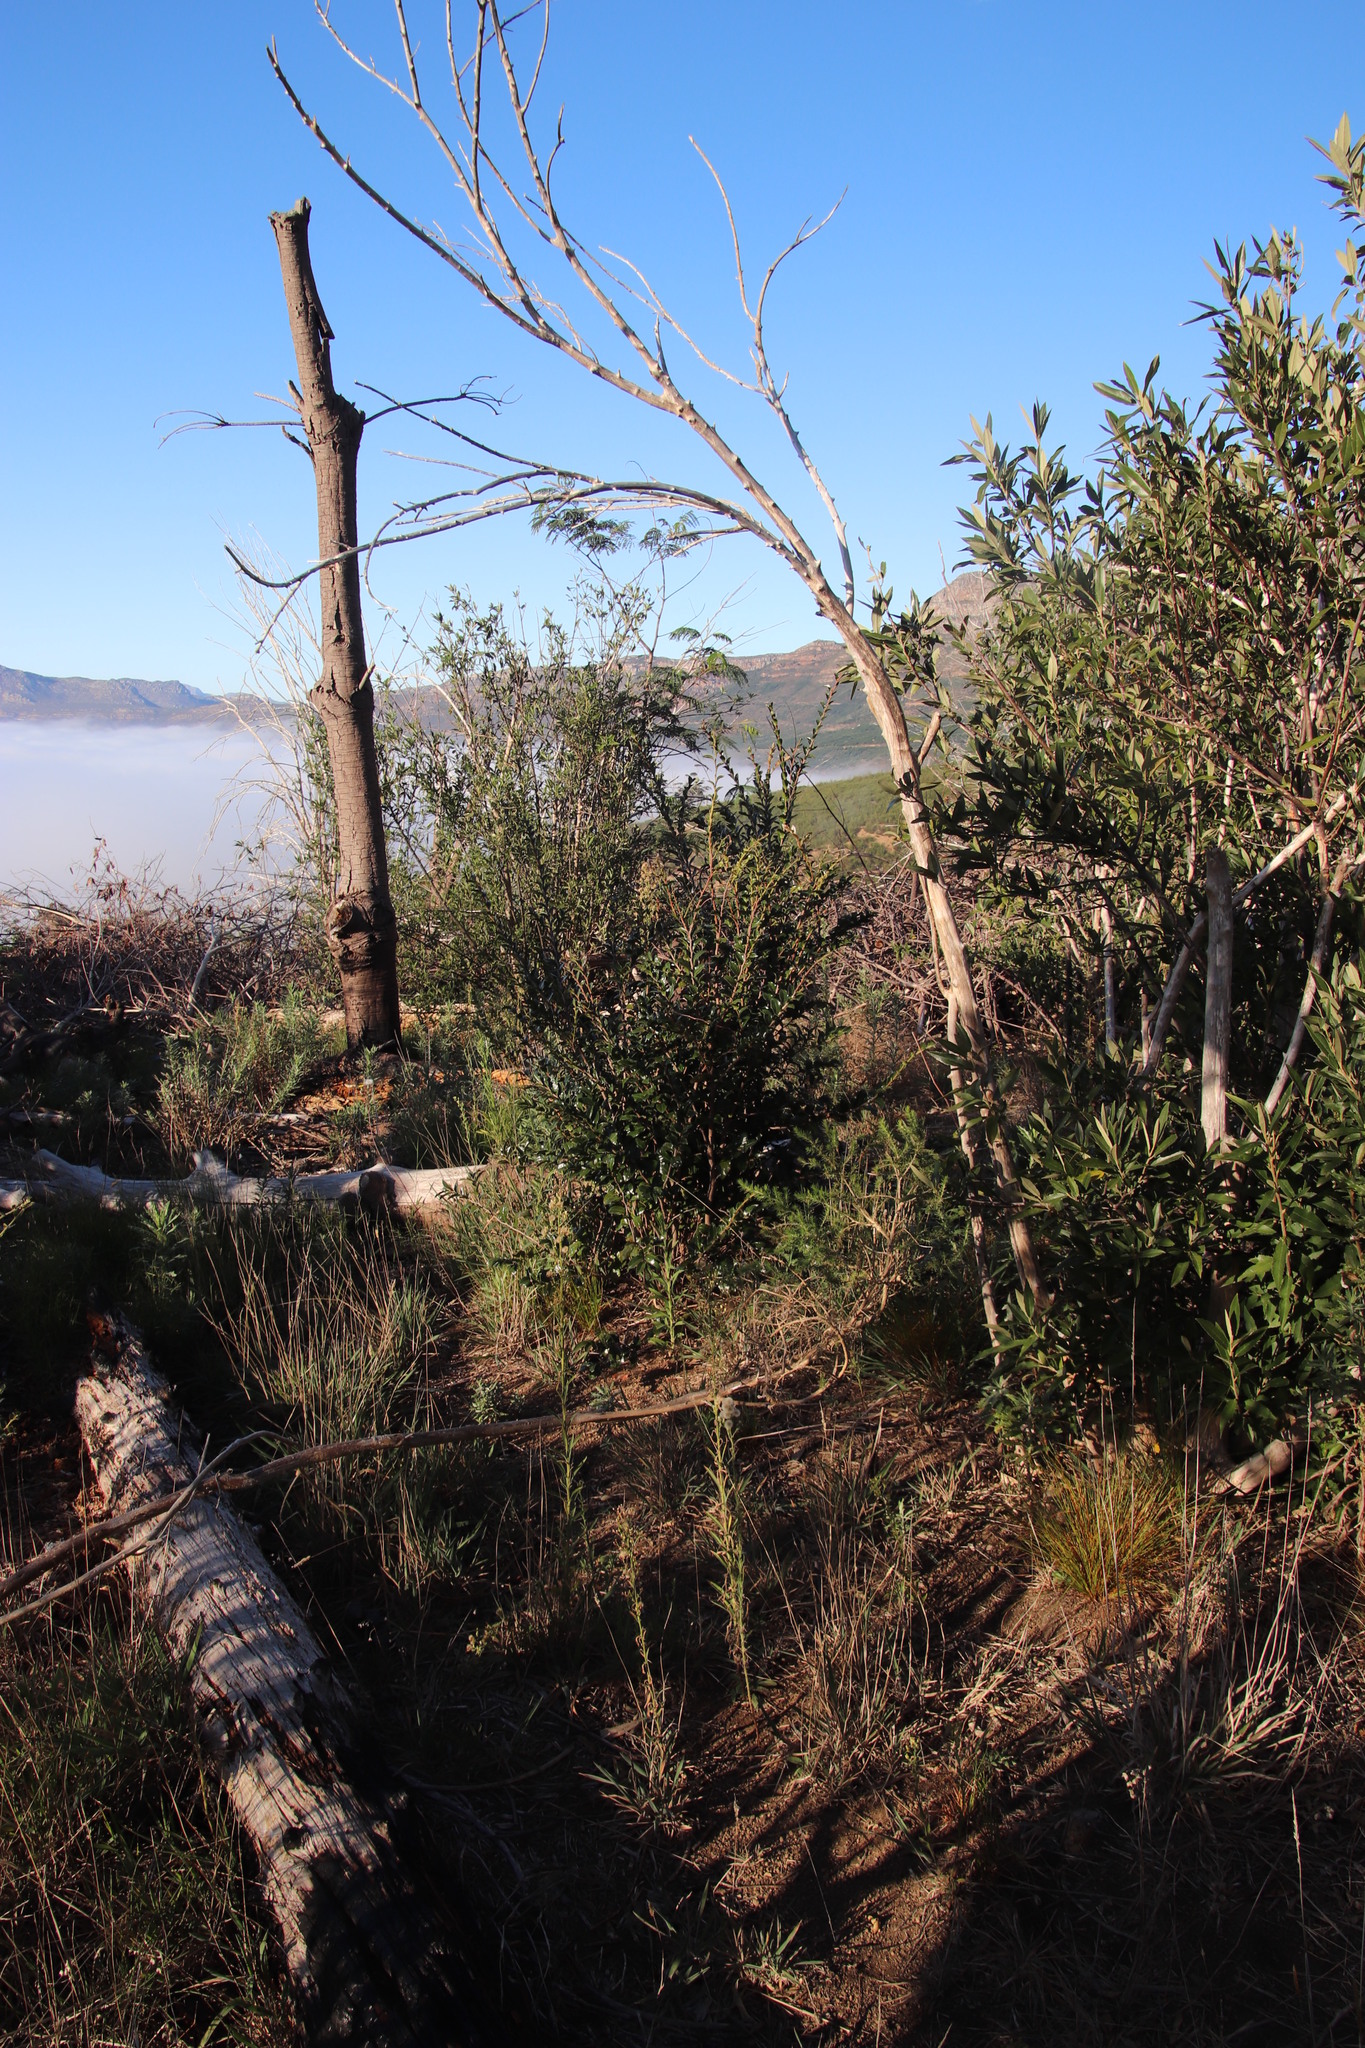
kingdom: Plantae
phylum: Tracheophyta
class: Magnoliopsida
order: Ericales
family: Ebenaceae
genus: Diospyros
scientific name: Diospyros whyteana
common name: Bladder-nut
